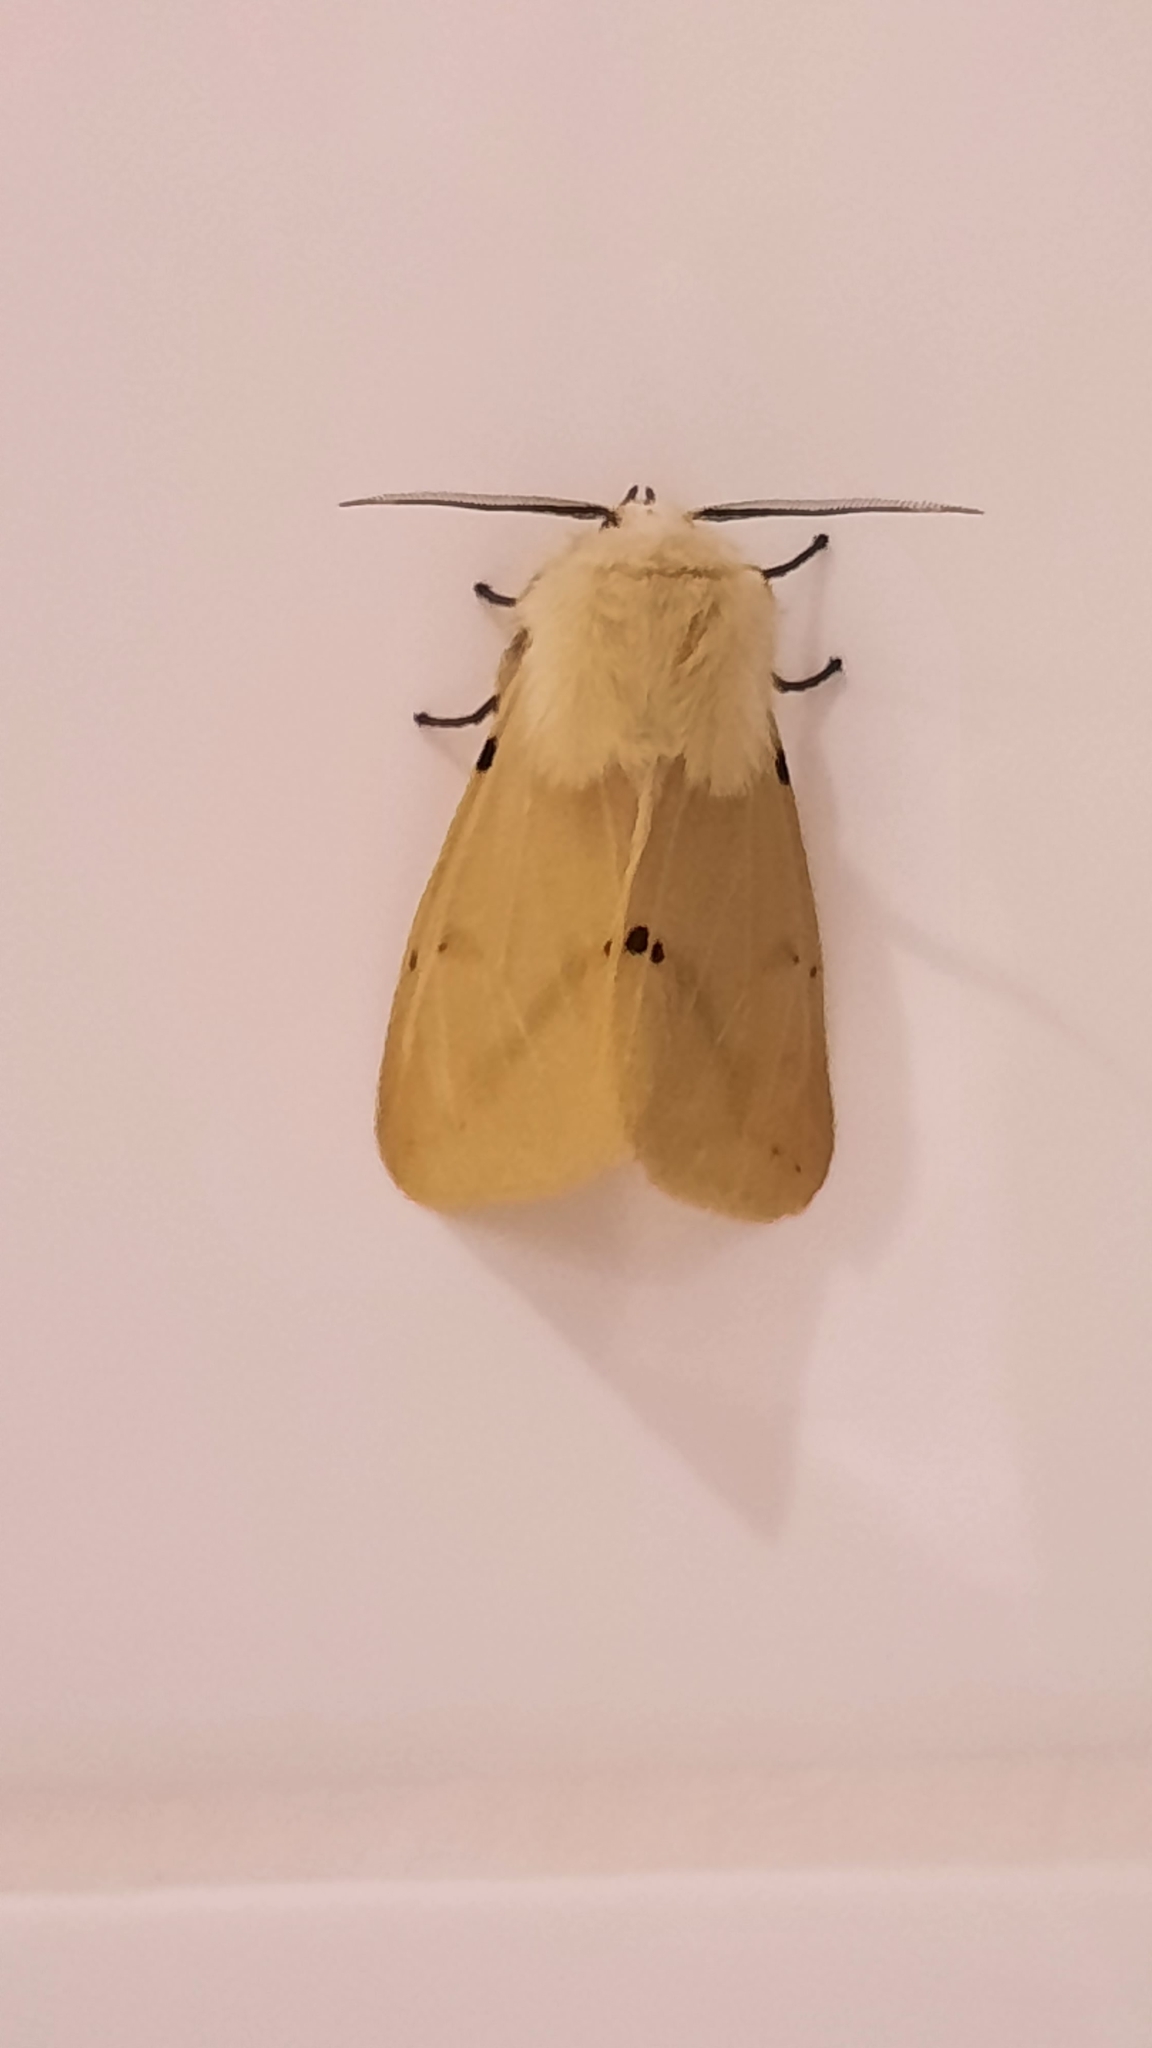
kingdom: Animalia
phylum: Arthropoda
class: Insecta
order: Lepidoptera
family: Erebidae
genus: Spilarctia
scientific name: Spilarctia lutea
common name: Buff ermine
